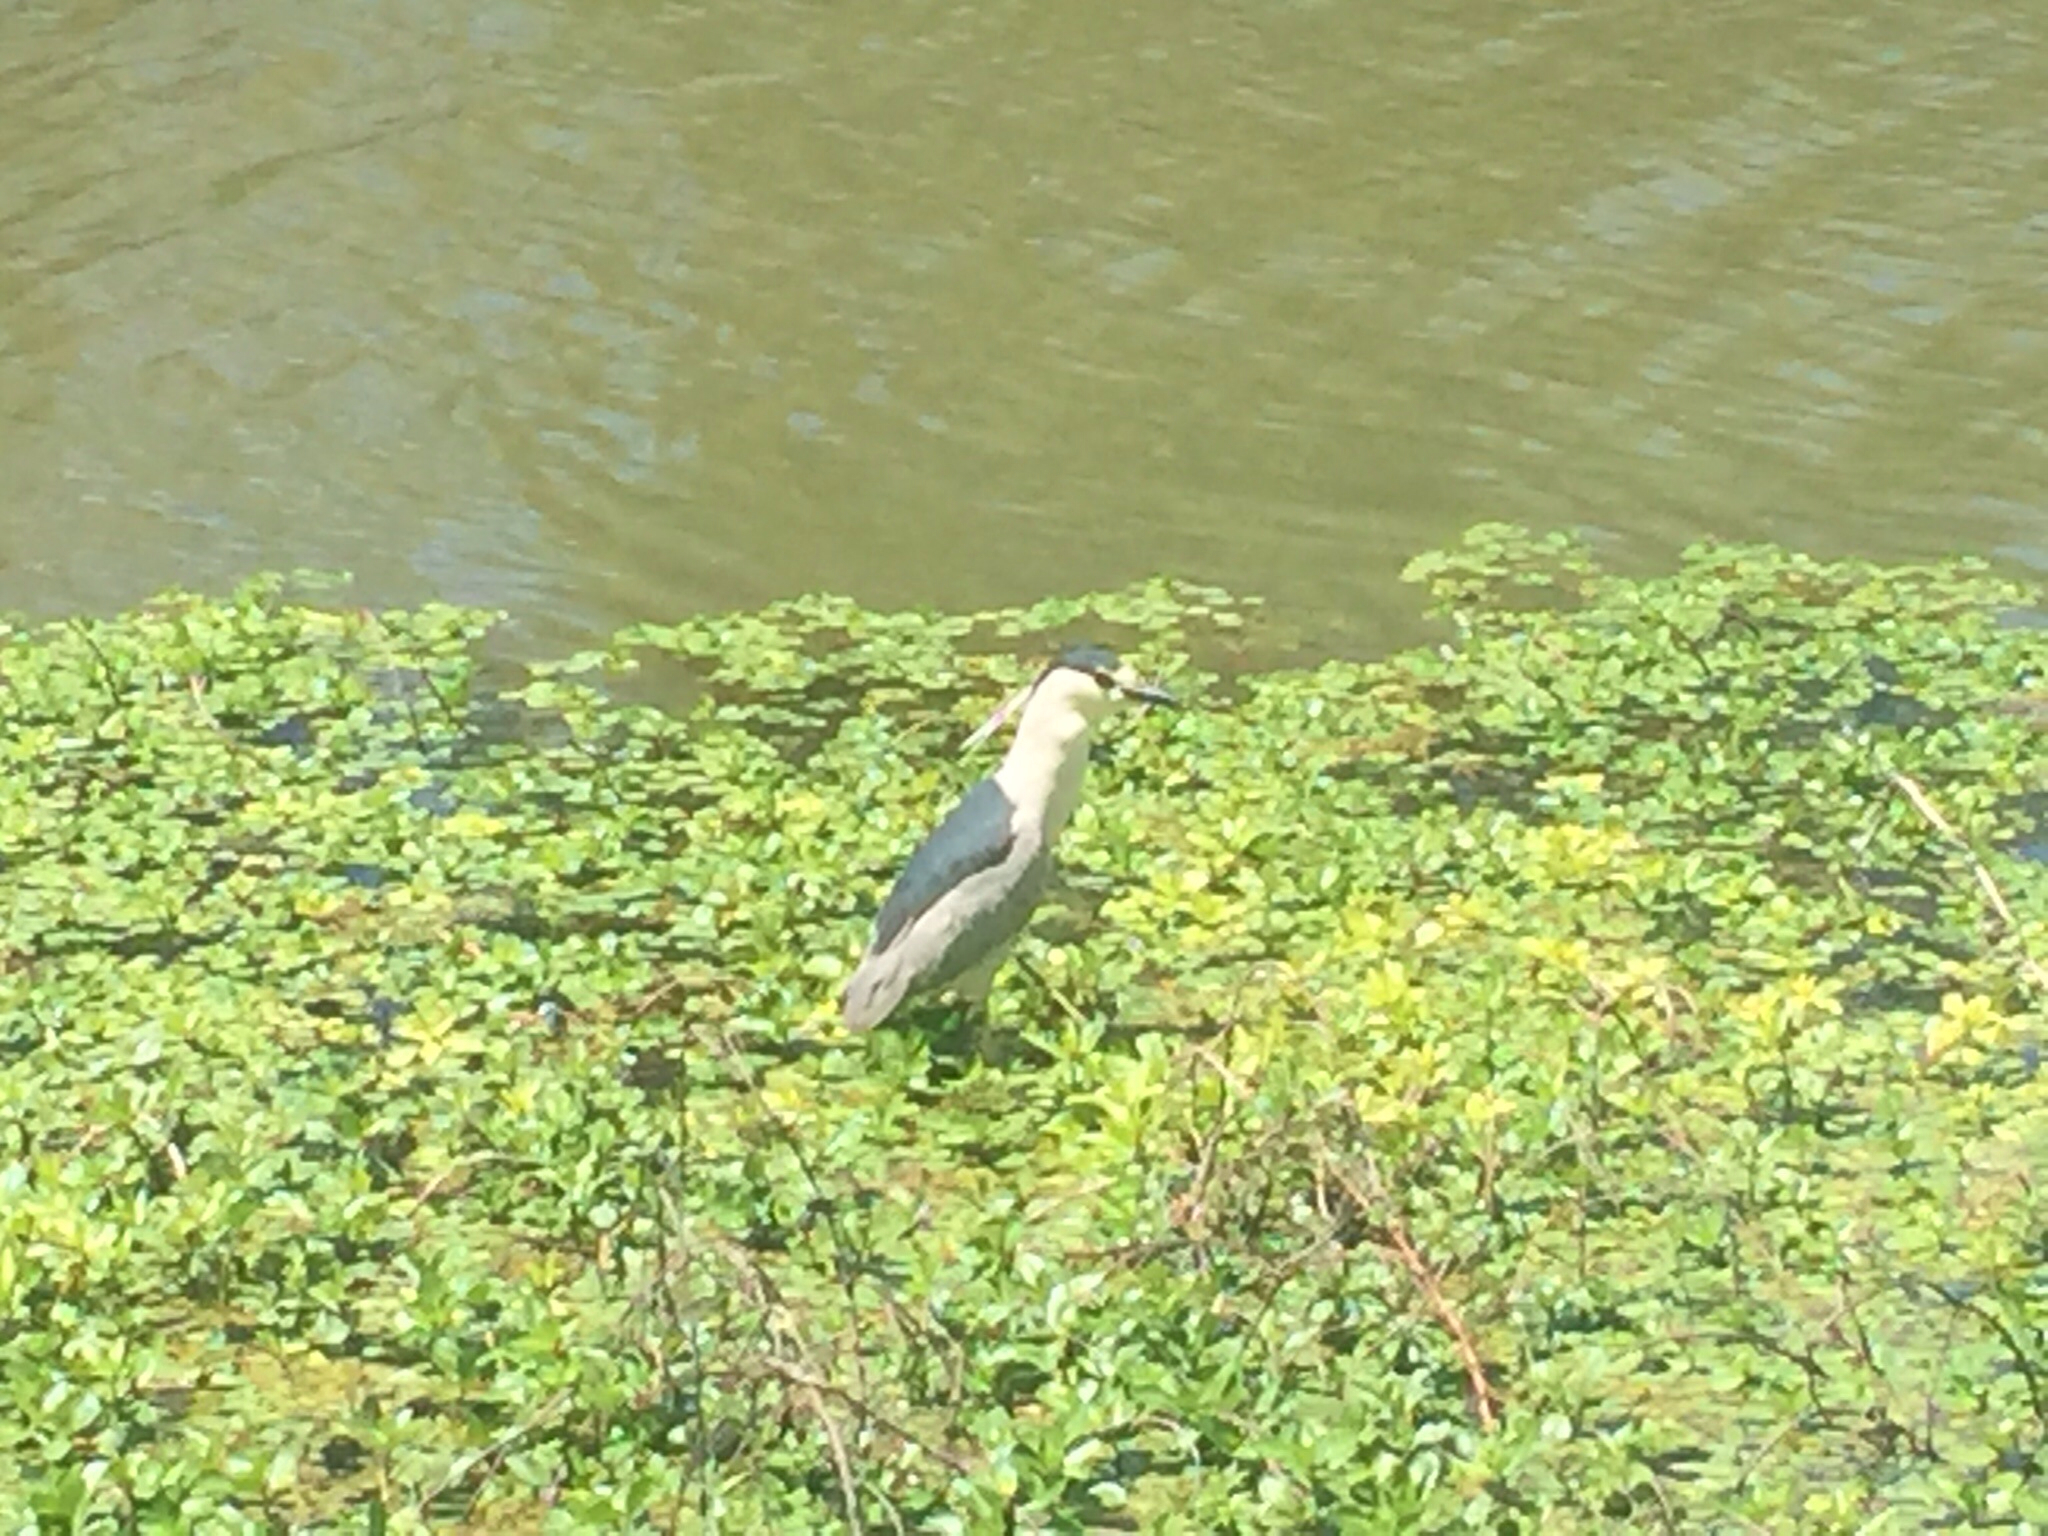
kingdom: Animalia
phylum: Chordata
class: Aves
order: Pelecaniformes
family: Ardeidae
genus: Nycticorax
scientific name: Nycticorax nycticorax
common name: Black-crowned night heron
